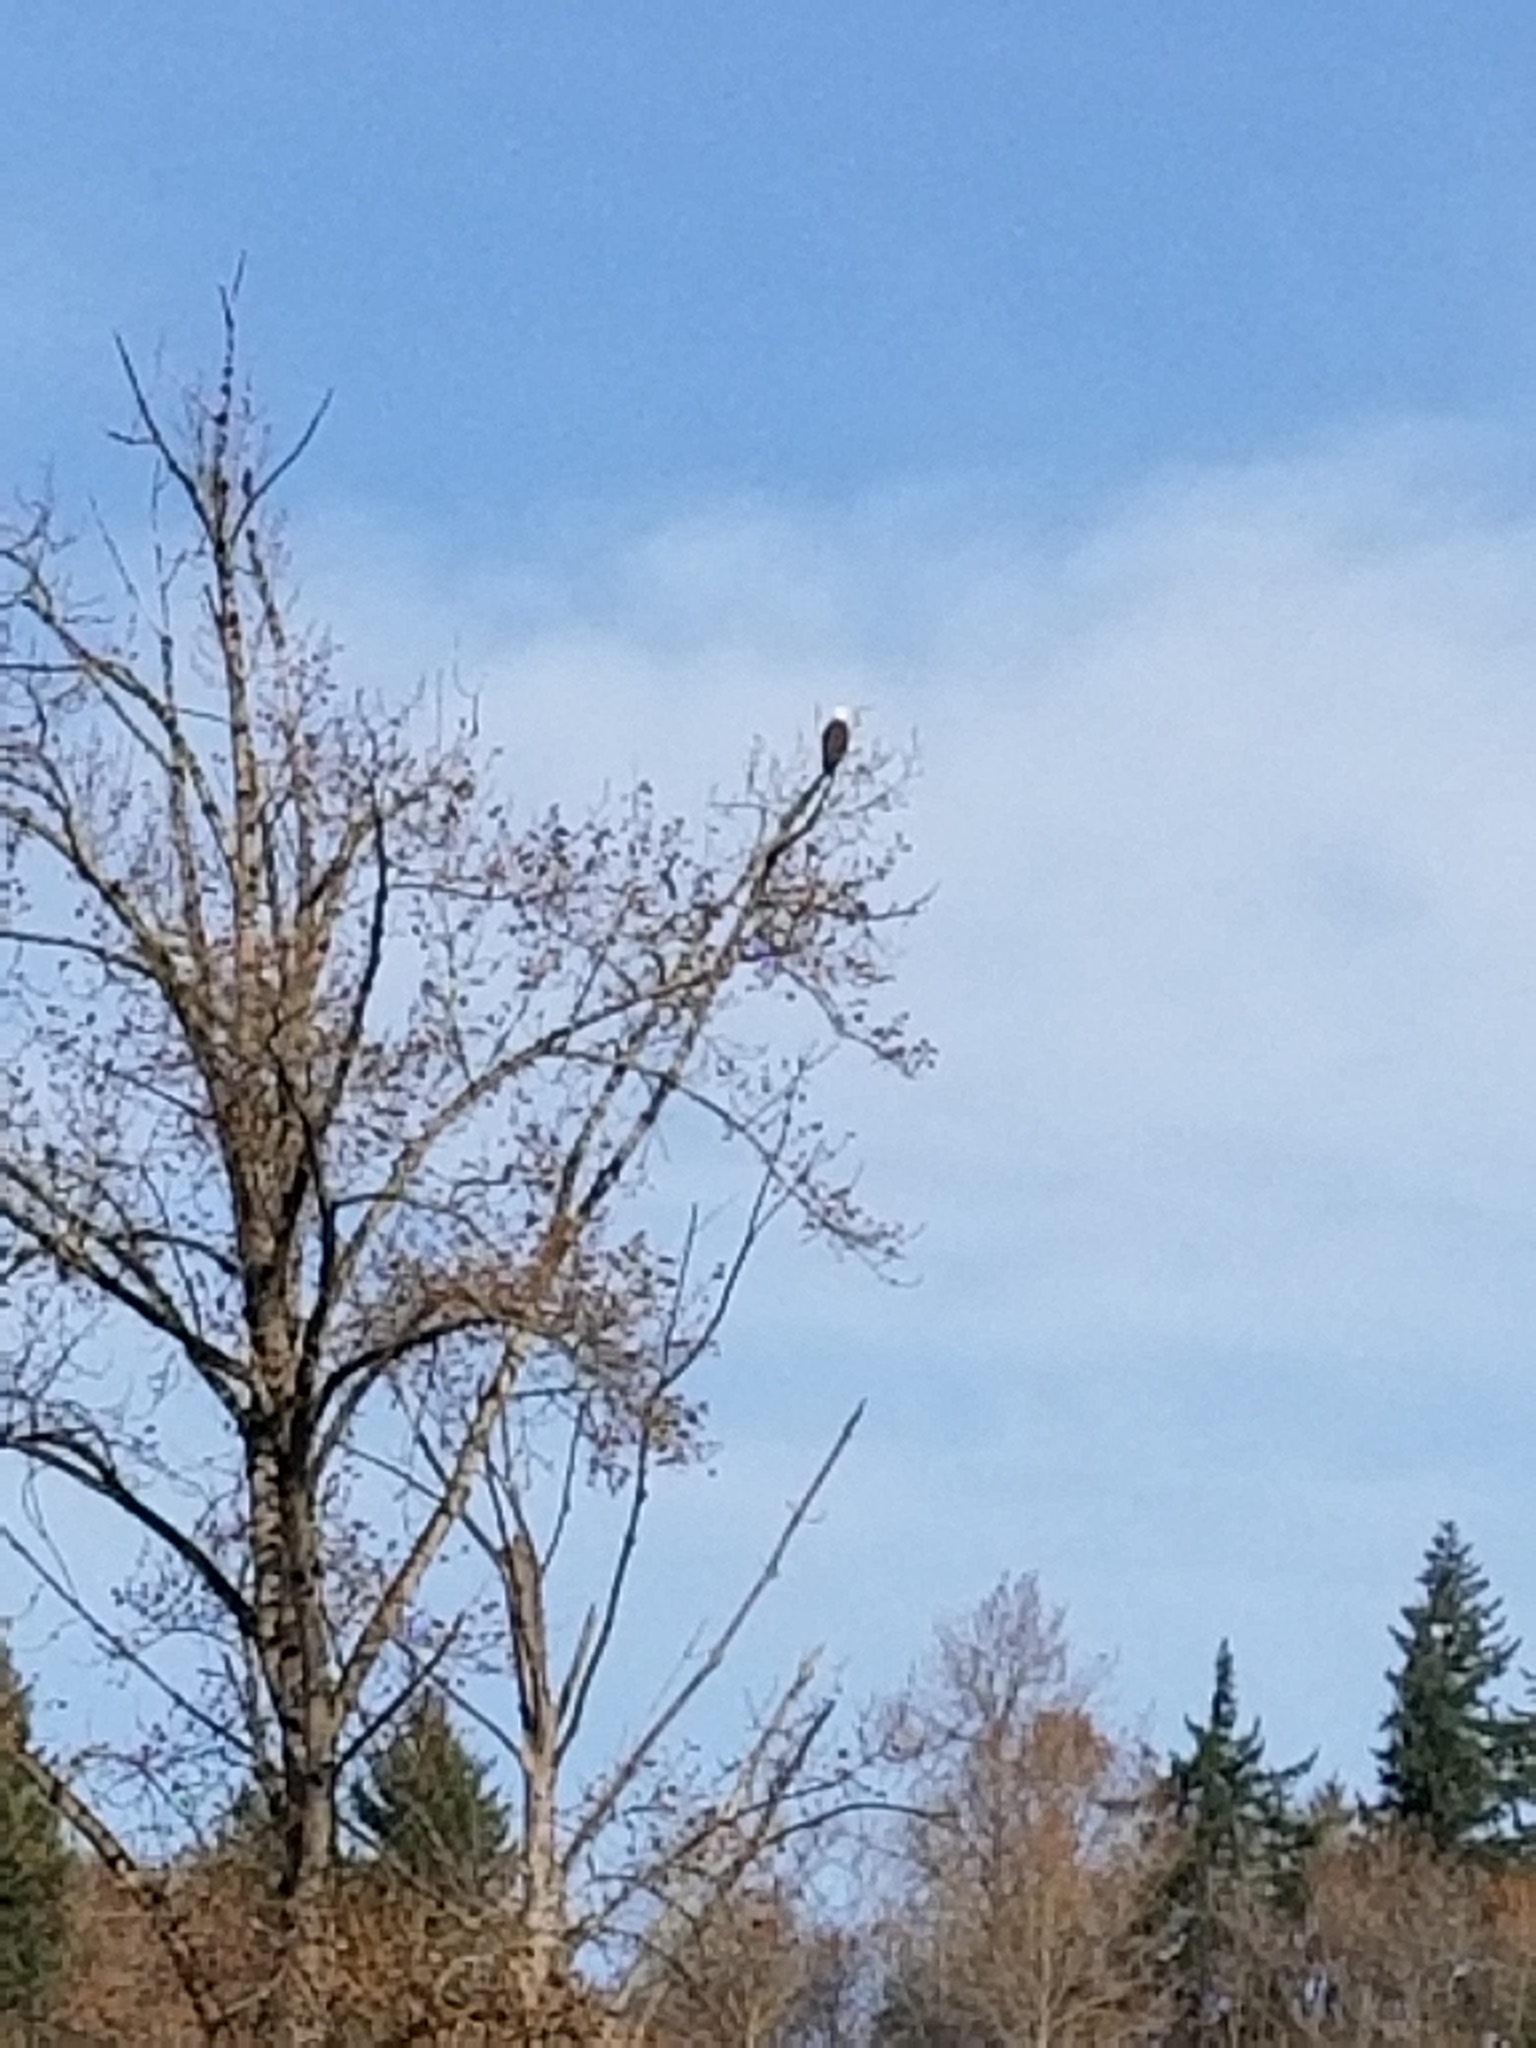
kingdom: Animalia
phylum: Chordata
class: Aves
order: Accipitriformes
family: Accipitridae
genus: Haliaeetus
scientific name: Haliaeetus leucocephalus
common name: Bald eagle
